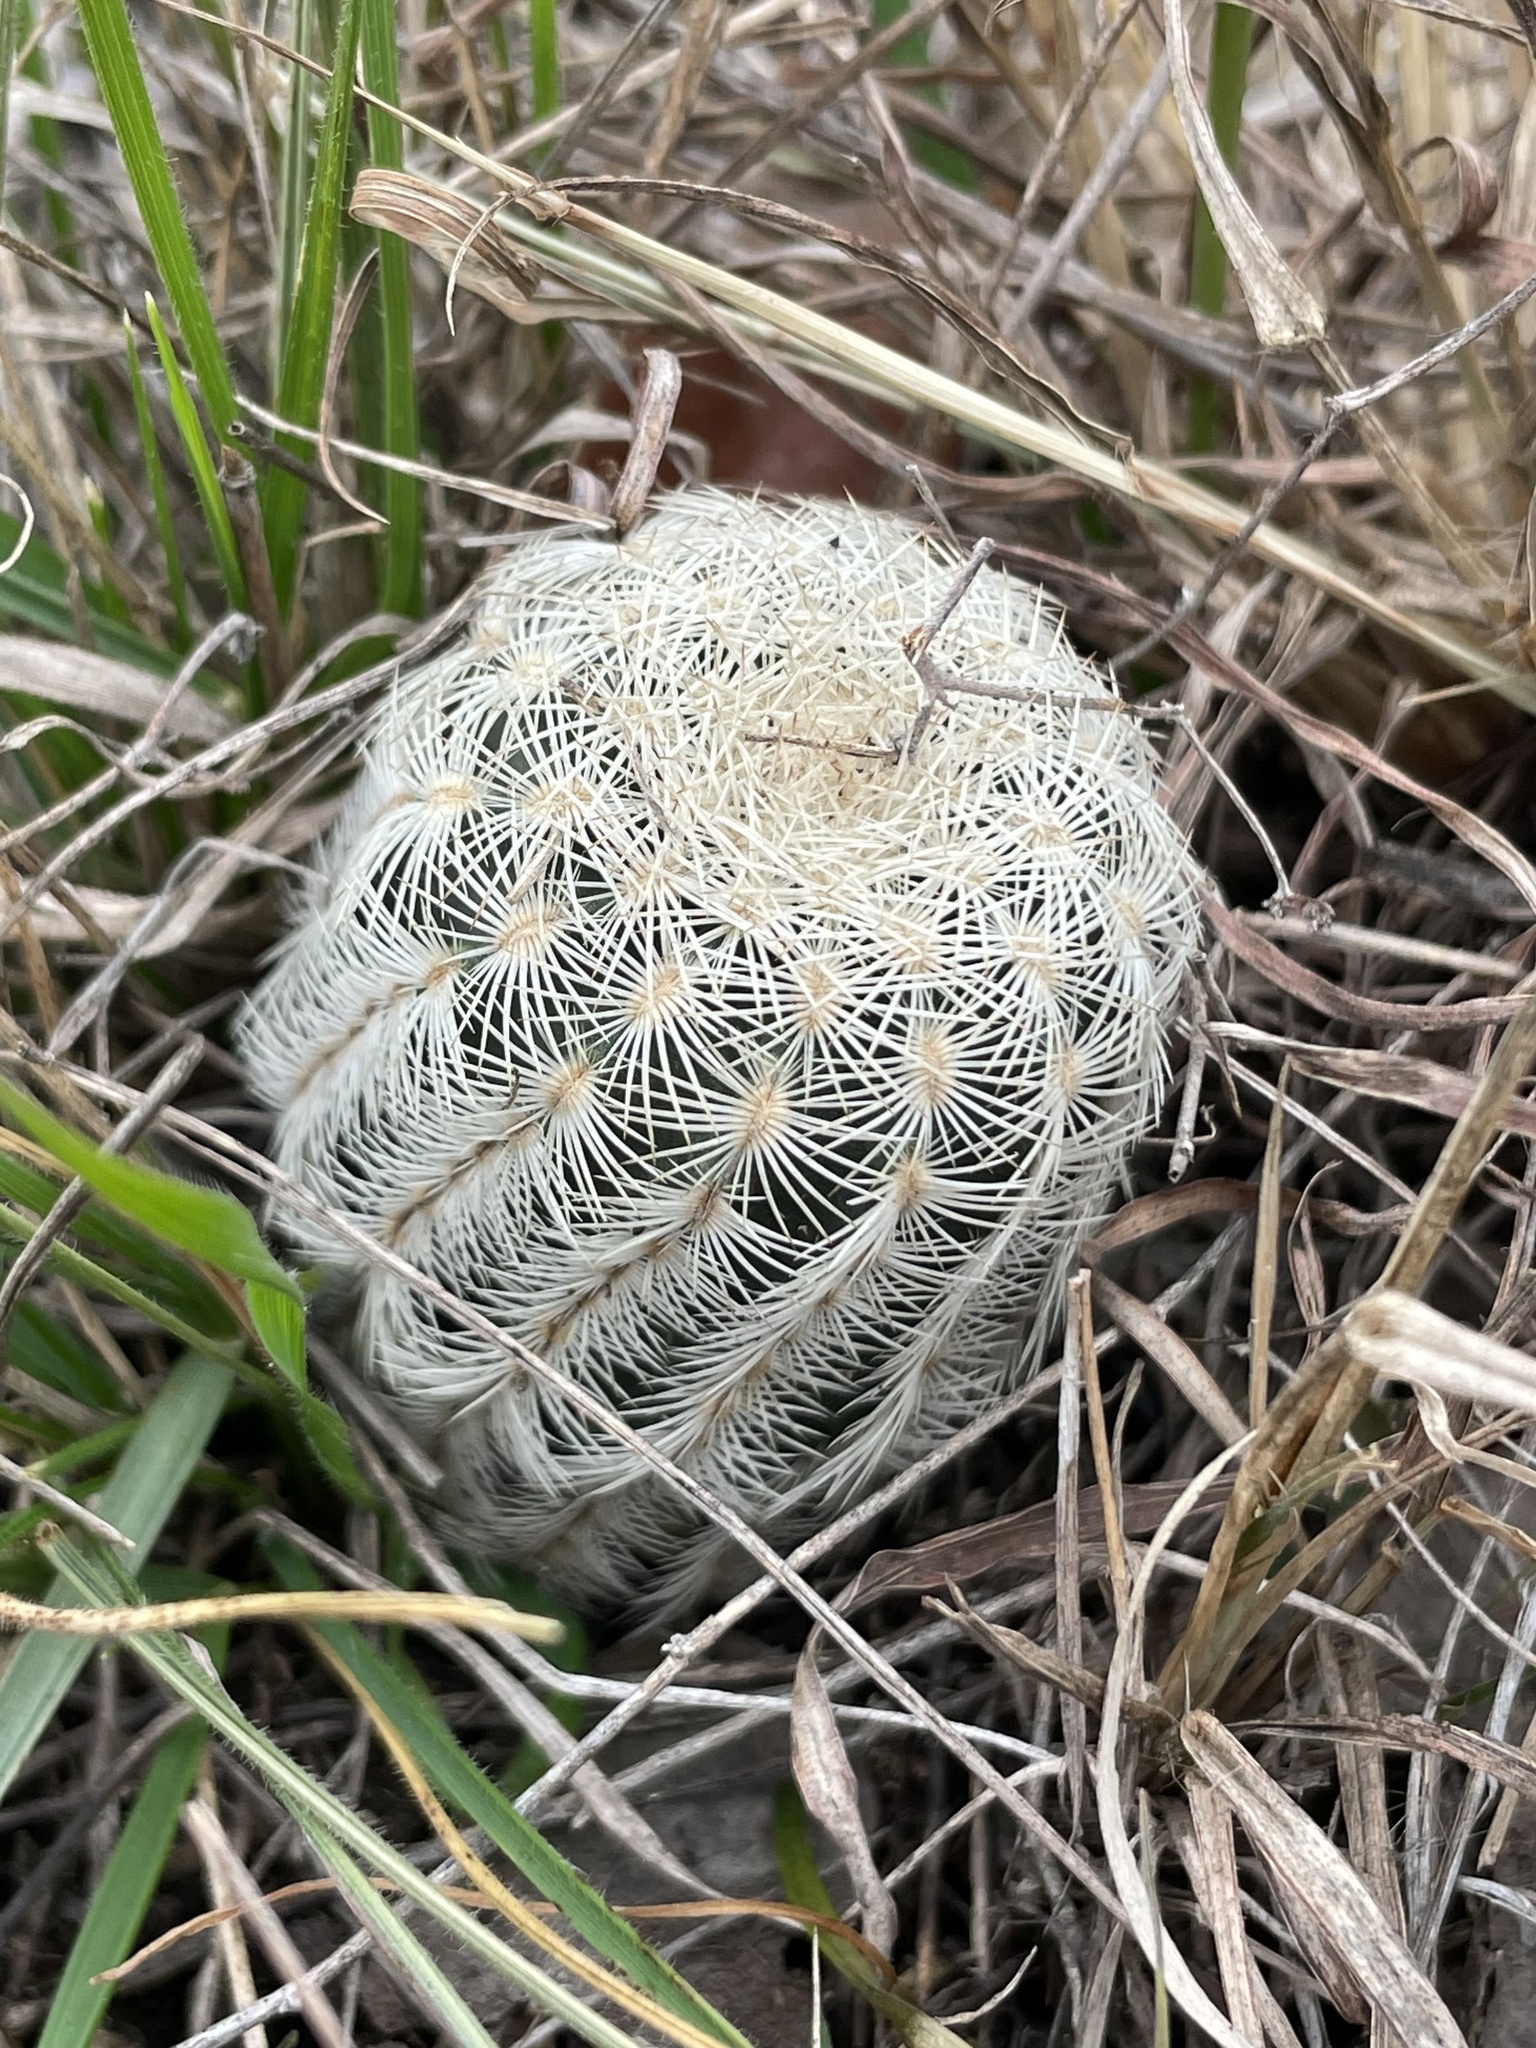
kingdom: Plantae
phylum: Tracheophyta
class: Magnoliopsida
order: Caryophyllales
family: Cactaceae
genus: Echinocereus
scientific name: Echinocereus reichenbachii
